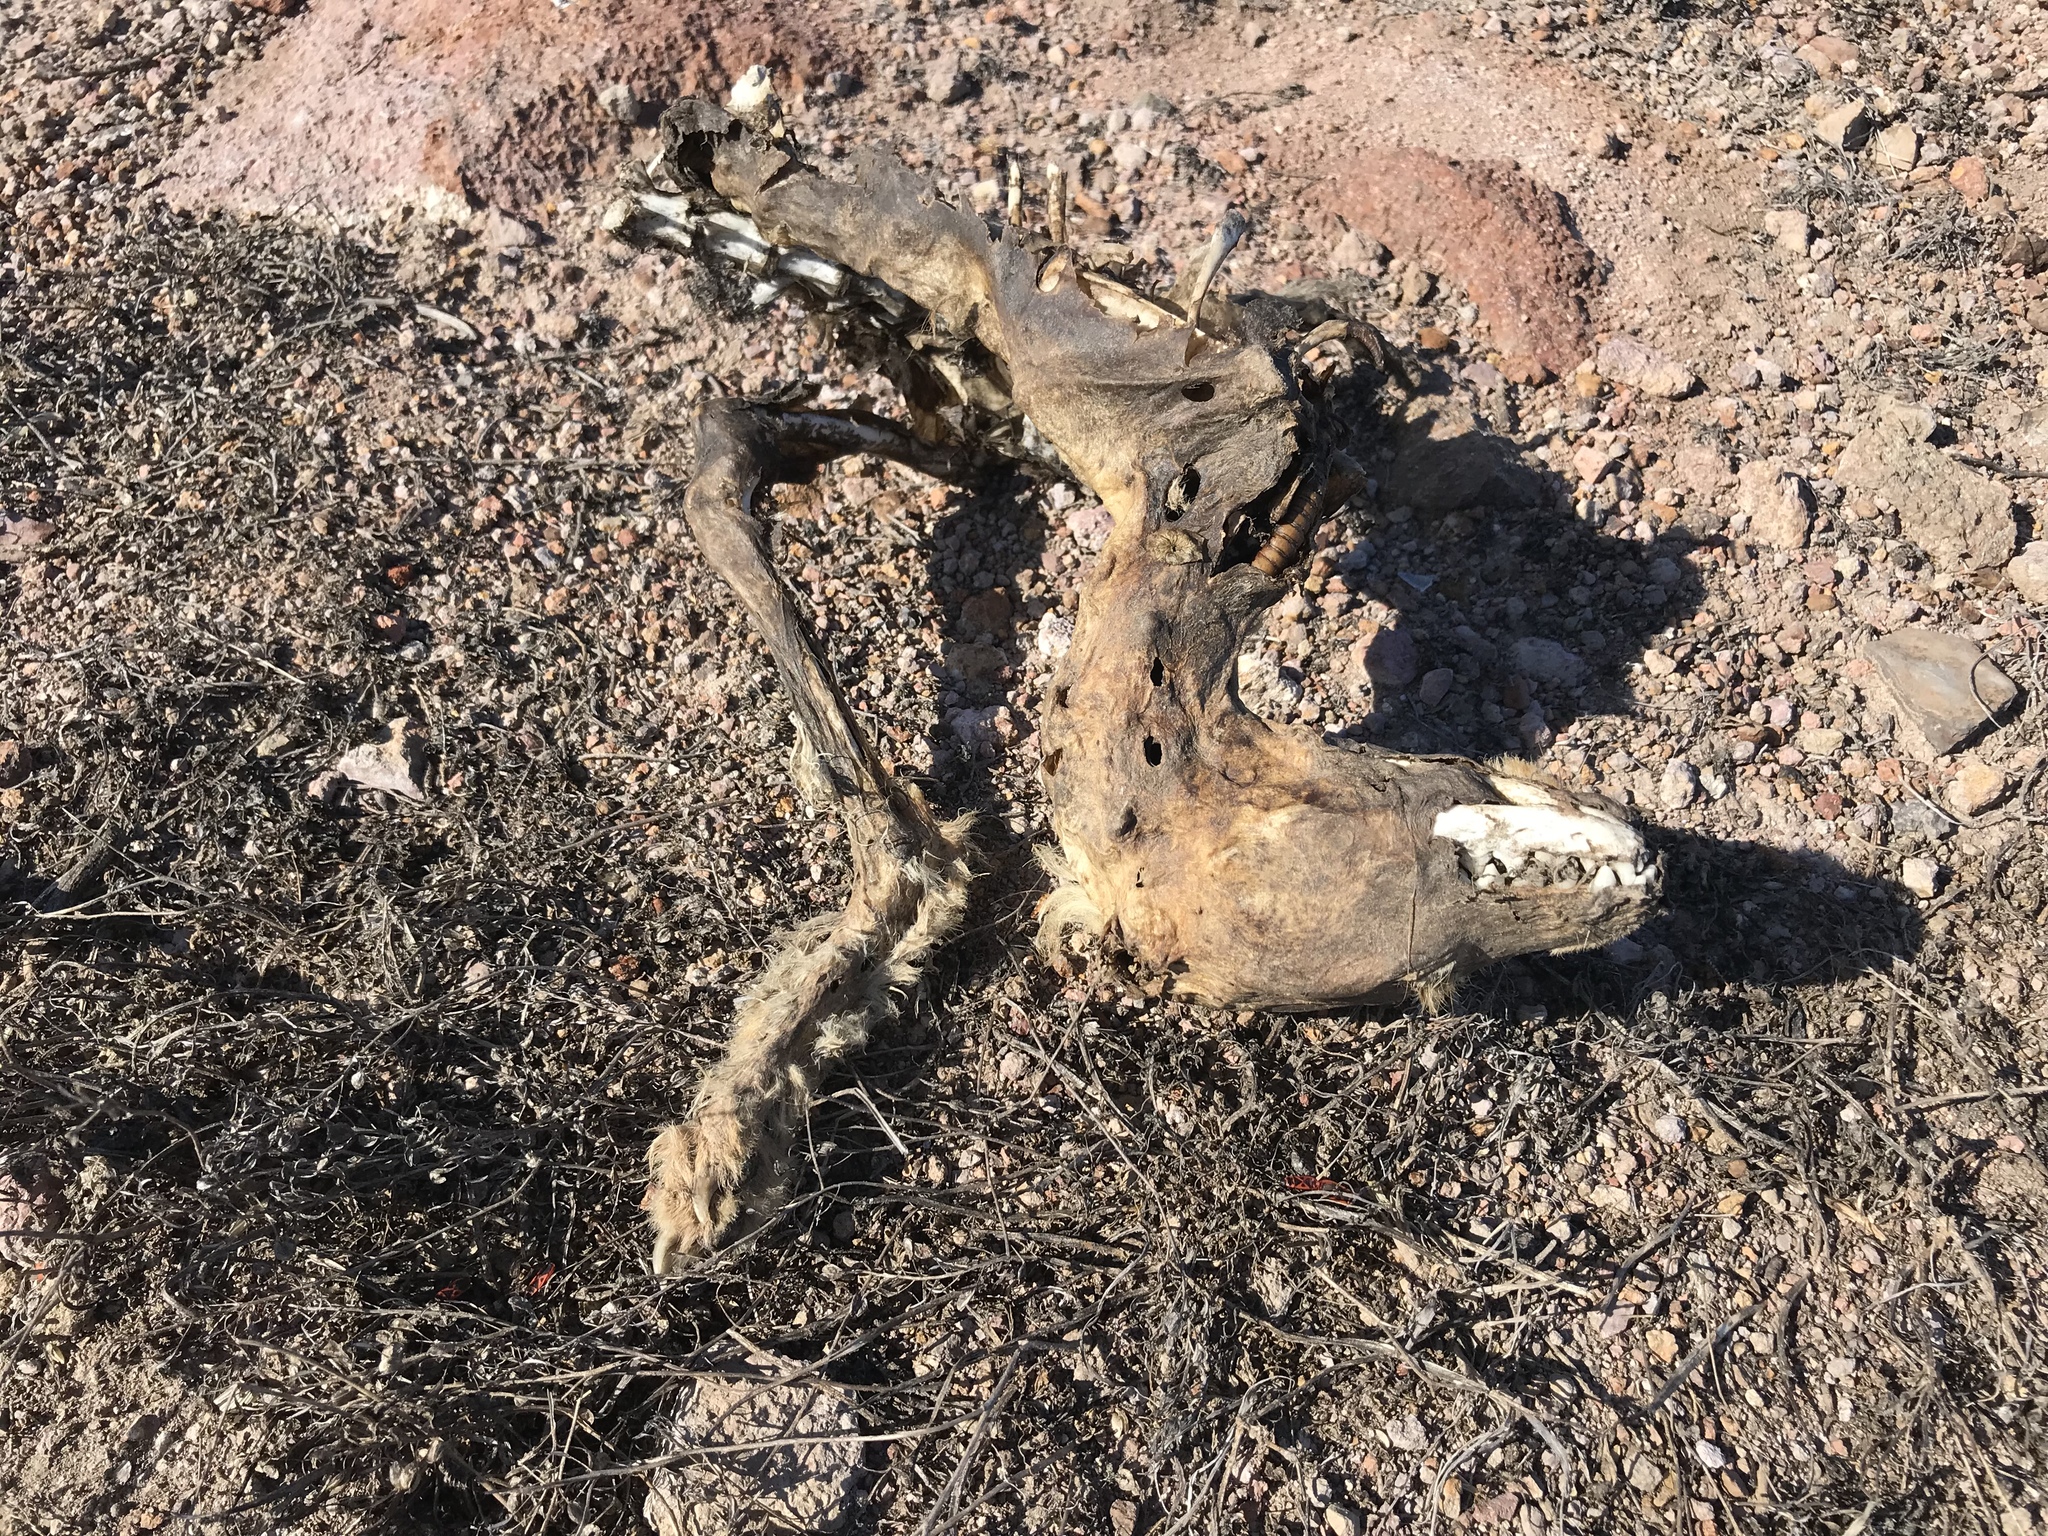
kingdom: Animalia
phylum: Chordata
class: Mammalia
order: Carnivora
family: Canidae
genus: Urocyon
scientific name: Urocyon littoralis
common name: Island gray fox
